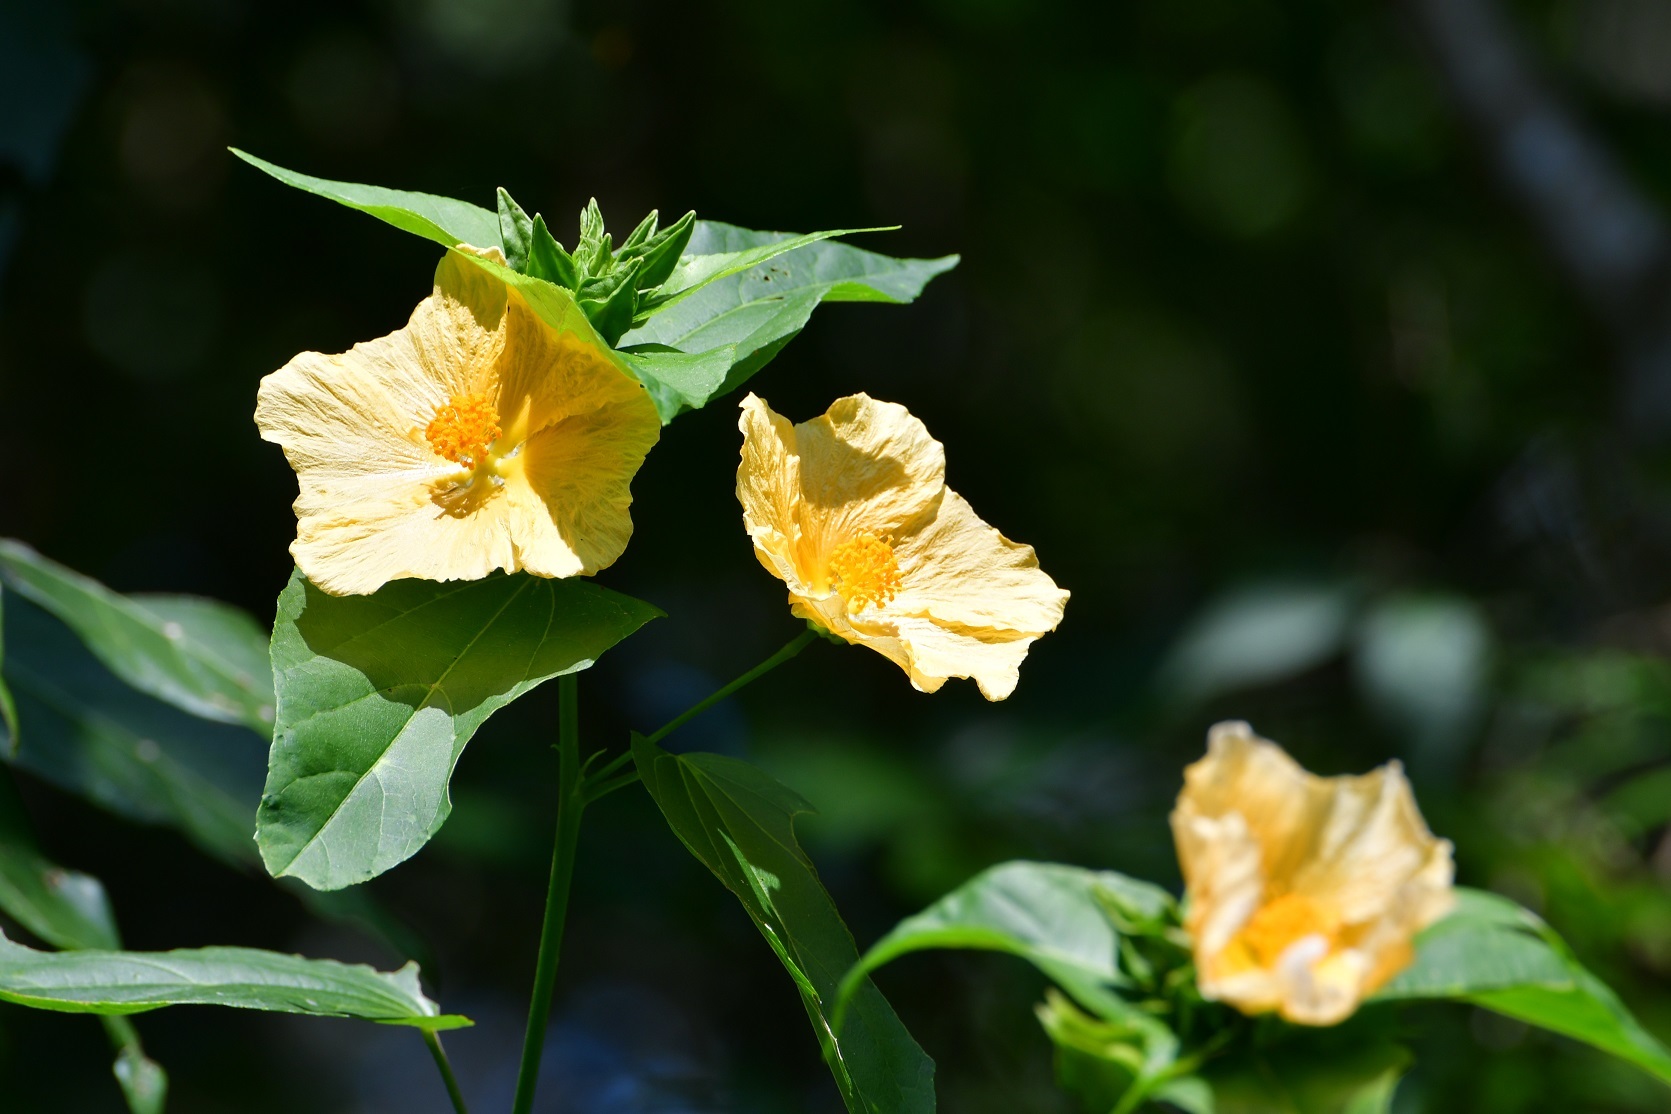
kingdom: Plantae
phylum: Tracheophyta
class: Magnoliopsida
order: Malvales
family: Malvaceae
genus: Dendrosida
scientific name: Dendrosida sharpiana
